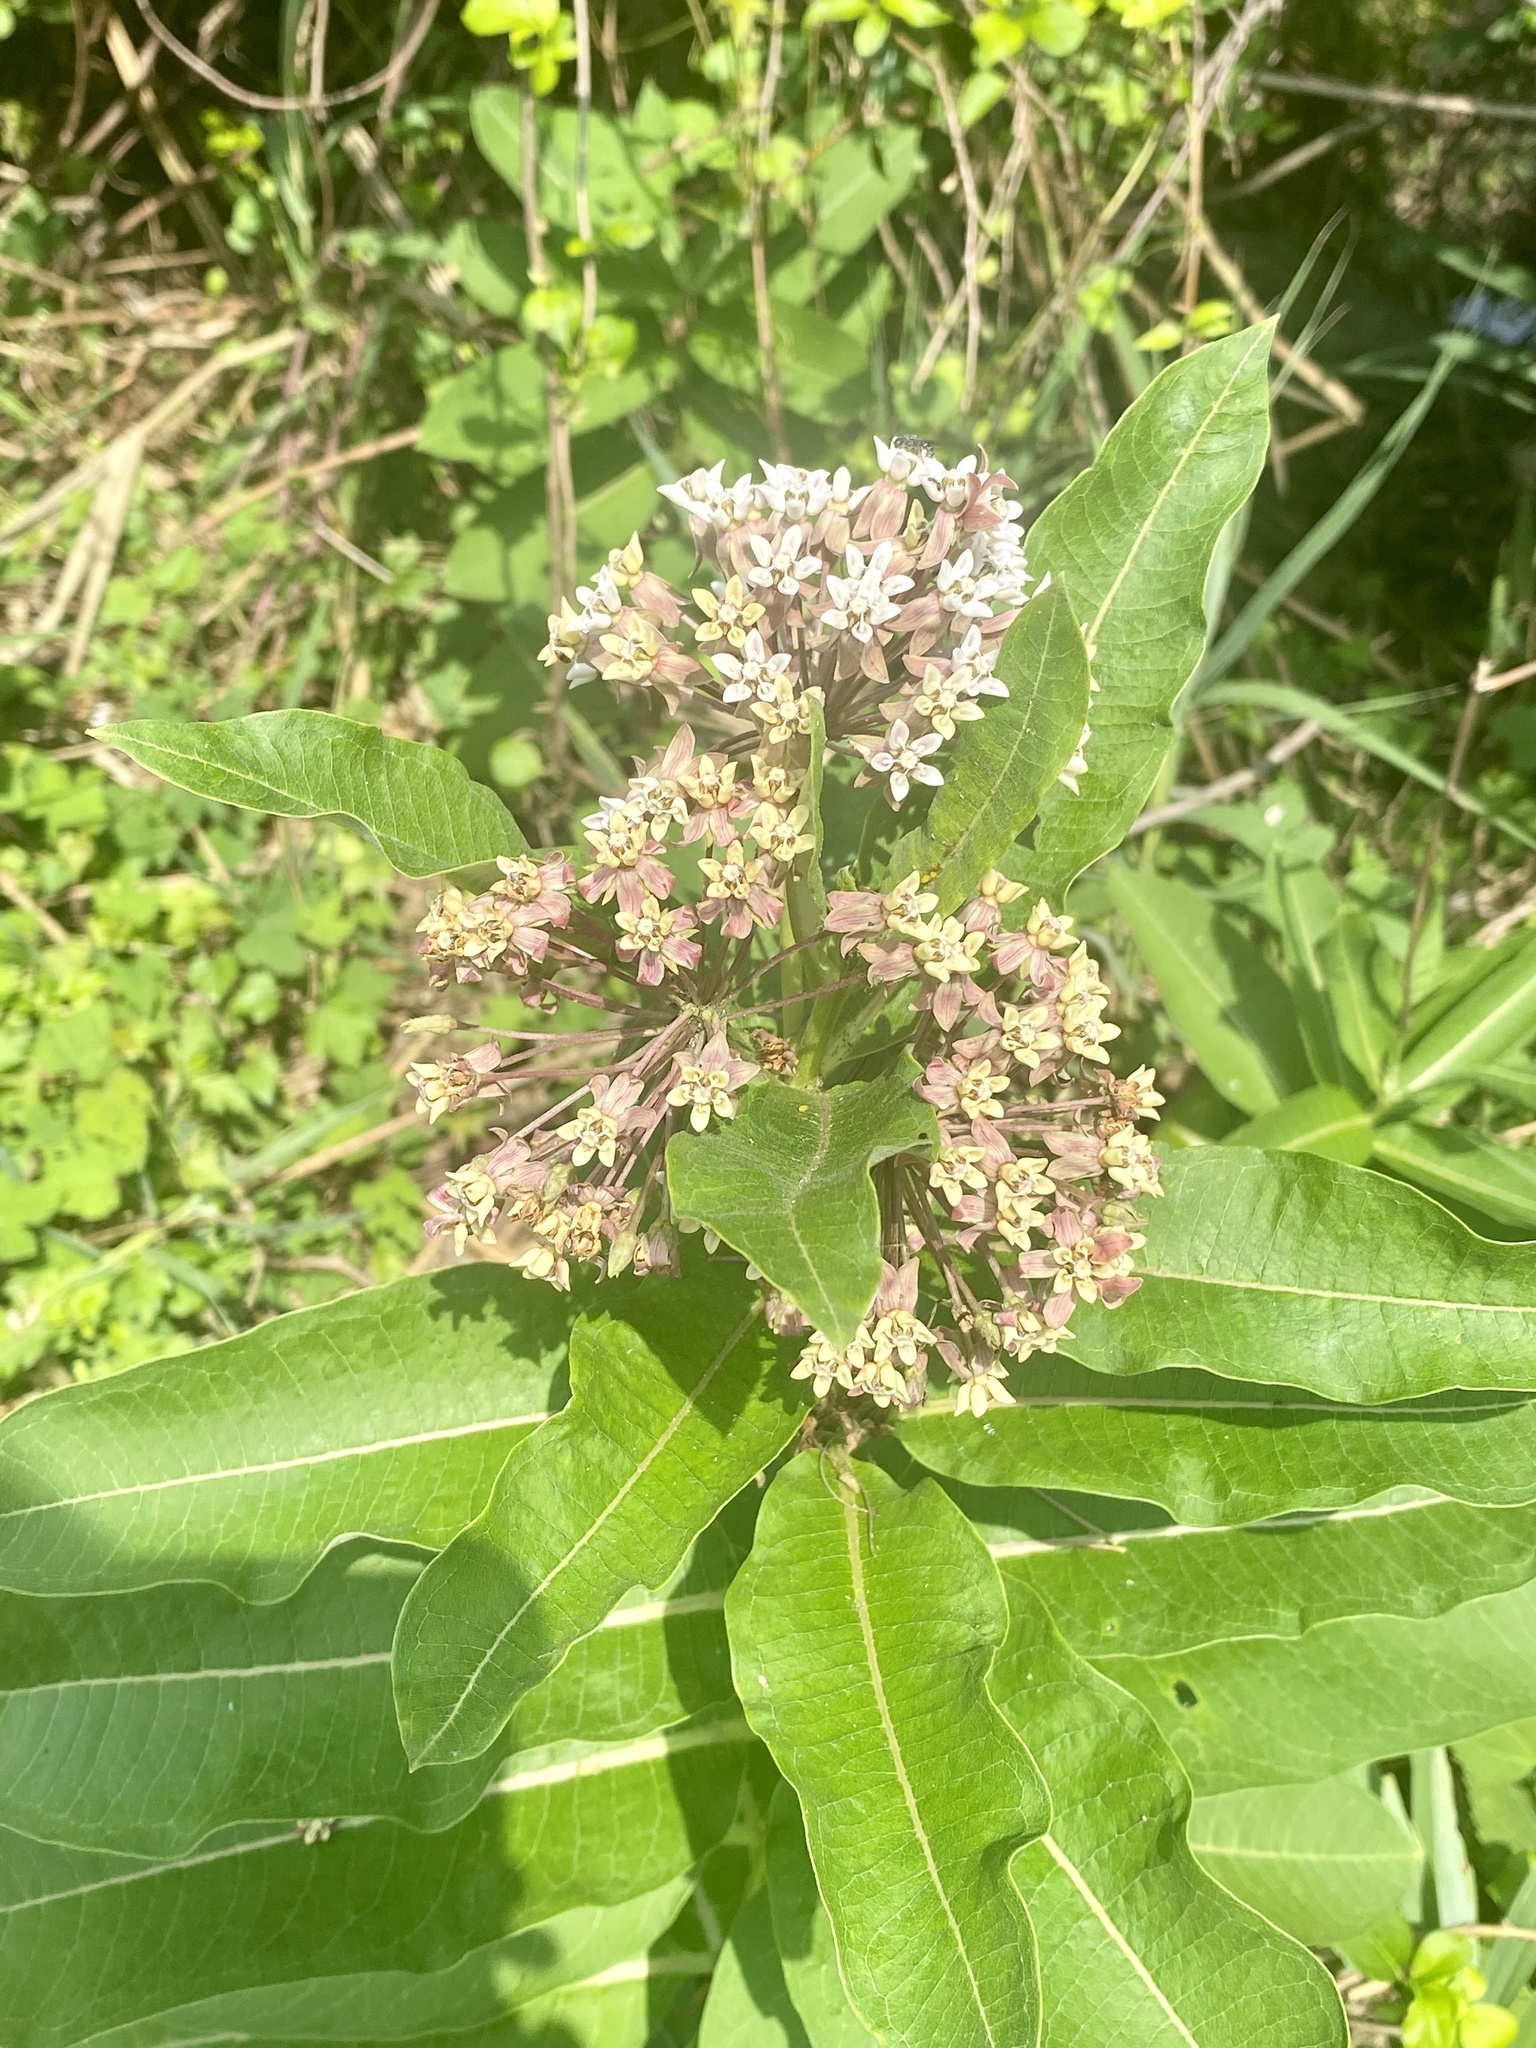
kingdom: Plantae
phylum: Tracheophyta
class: Magnoliopsida
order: Gentianales
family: Apocynaceae
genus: Asclepias
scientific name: Asclepias syriaca
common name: Common milkweed
